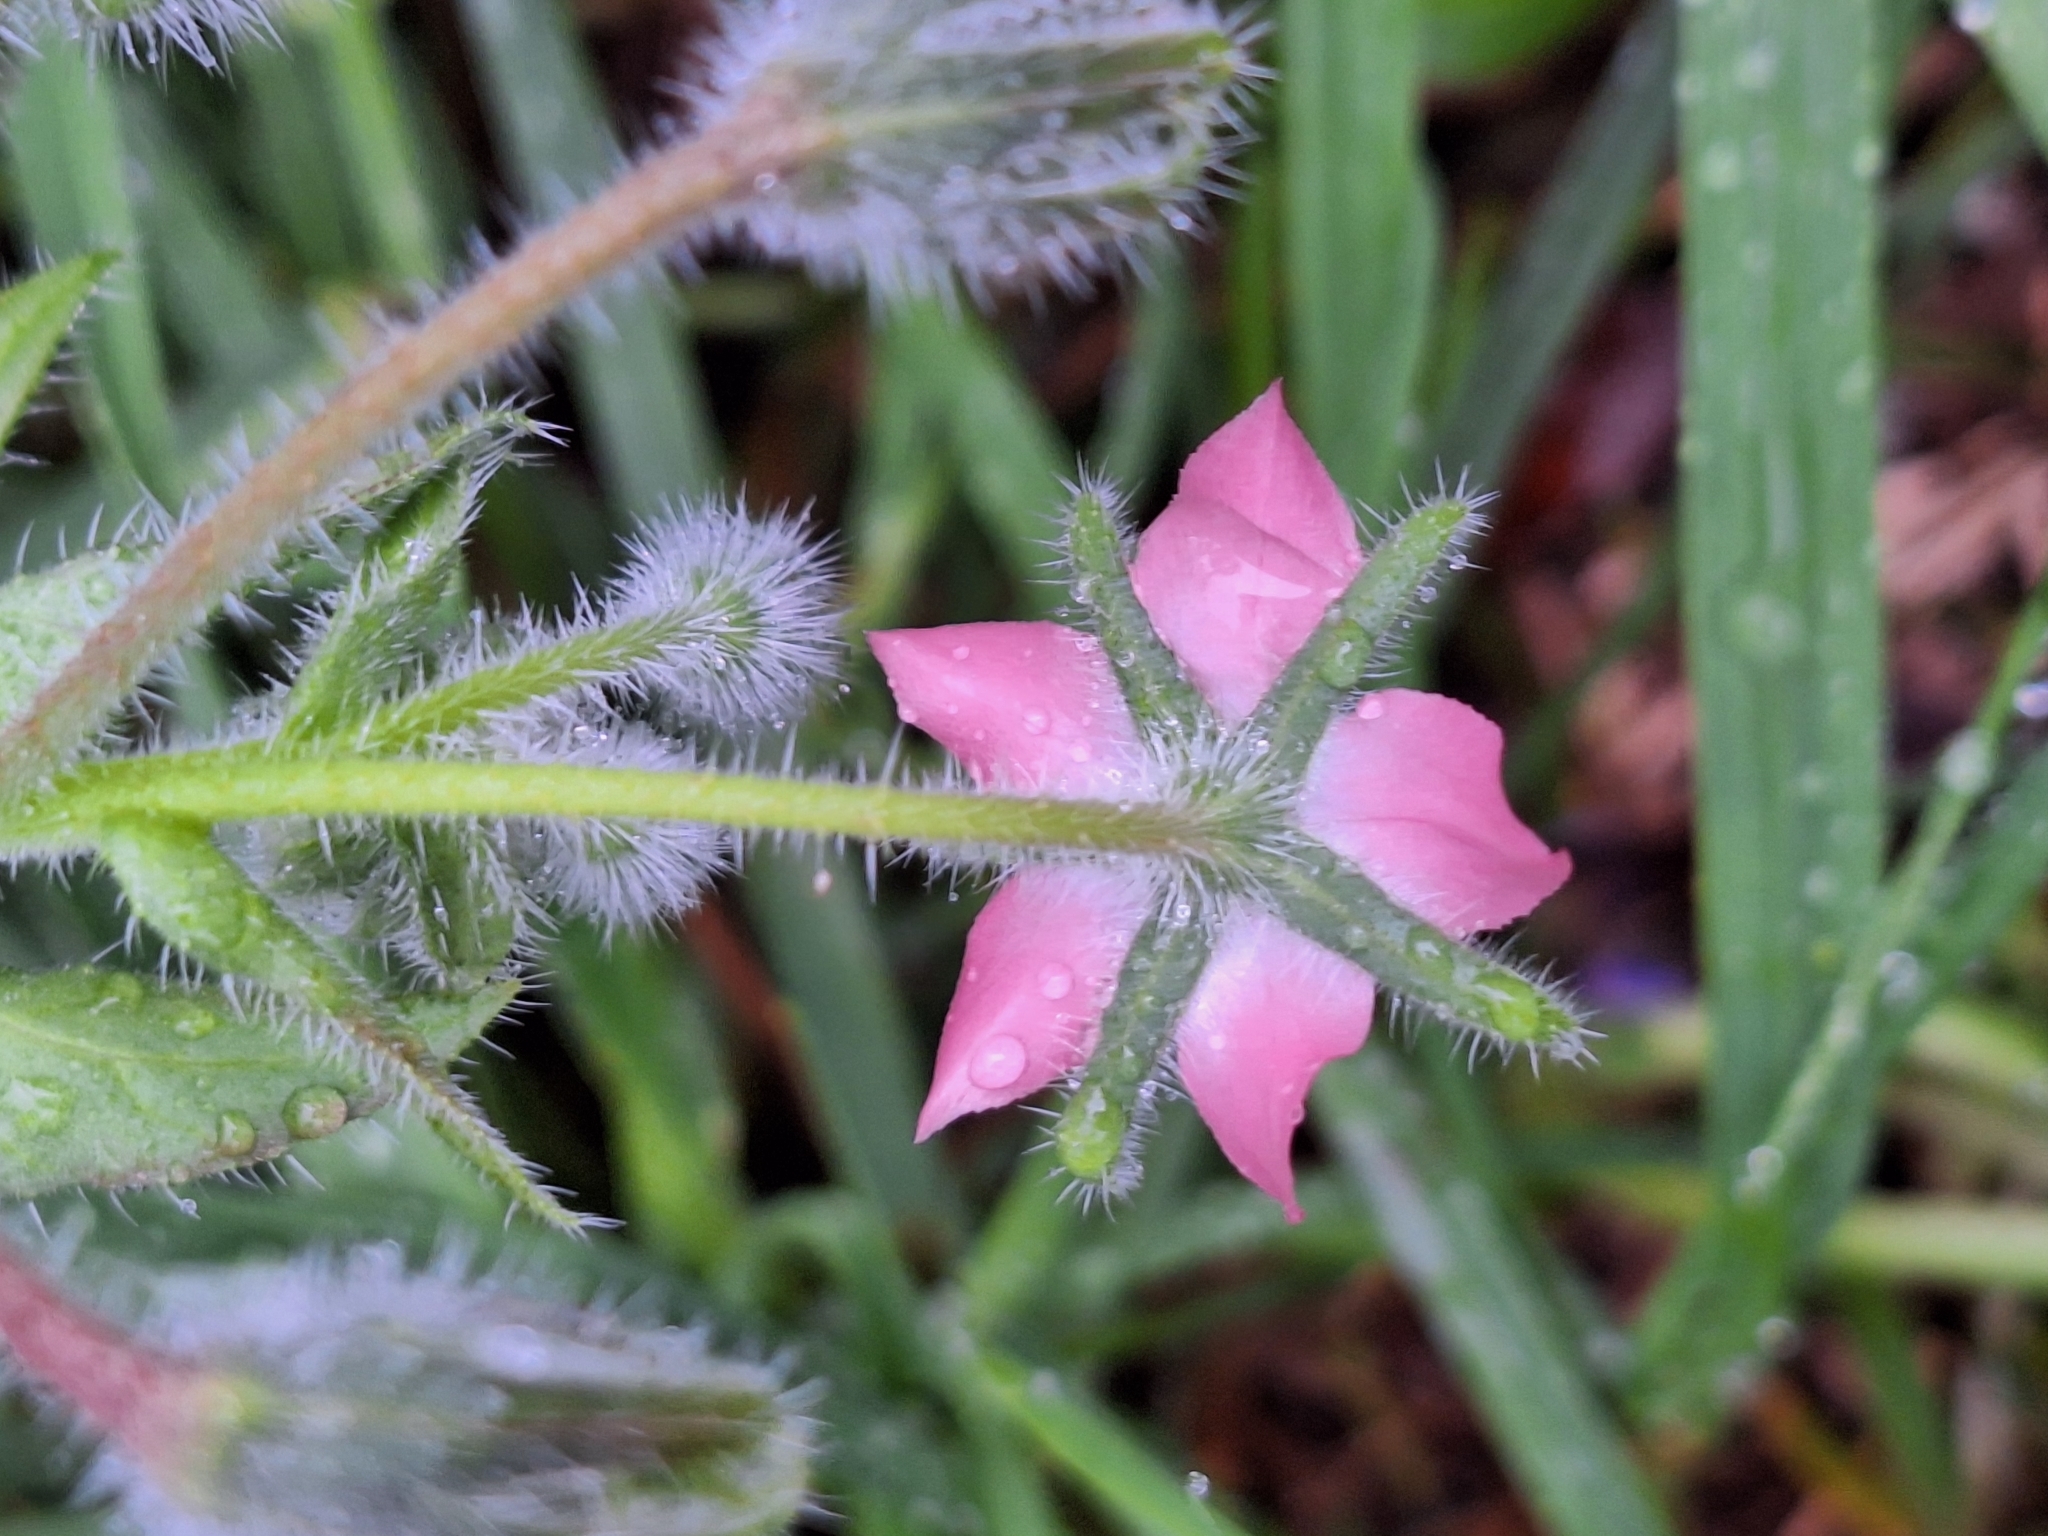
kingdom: Plantae
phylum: Tracheophyta
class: Magnoliopsida
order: Boraginales
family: Boraginaceae
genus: Borago
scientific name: Borago officinalis
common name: Borage
